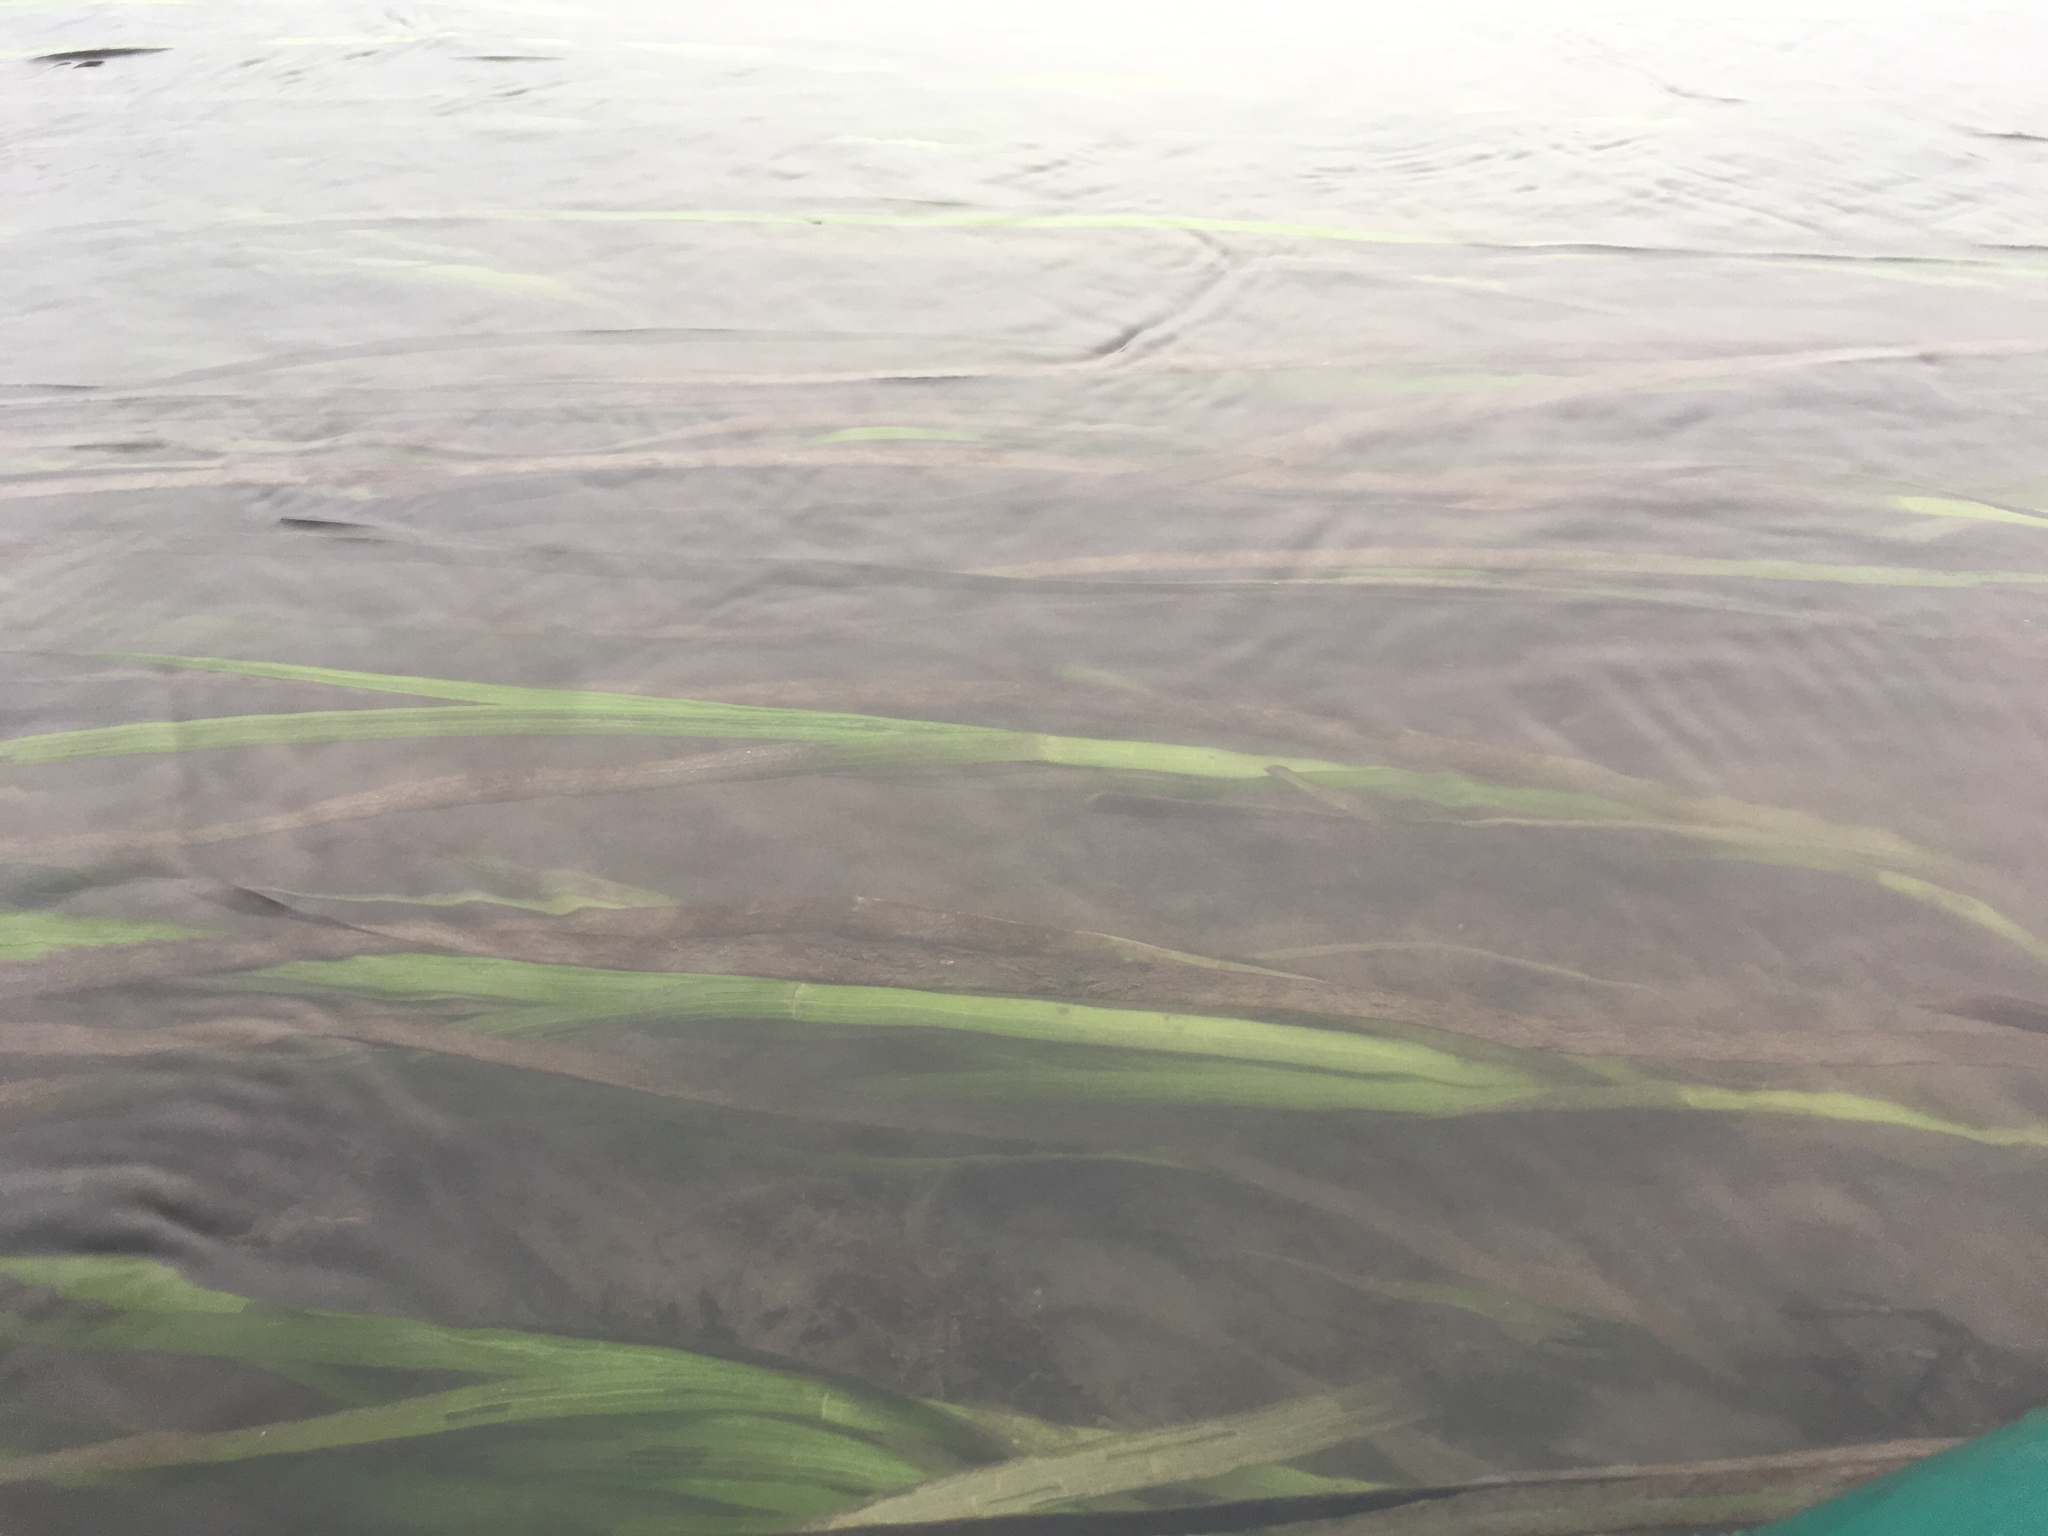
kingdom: Plantae
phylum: Tracheophyta
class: Liliopsida
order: Alismatales
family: Zosteraceae
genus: Zostera
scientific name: Zostera marina
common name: Eelgrass
